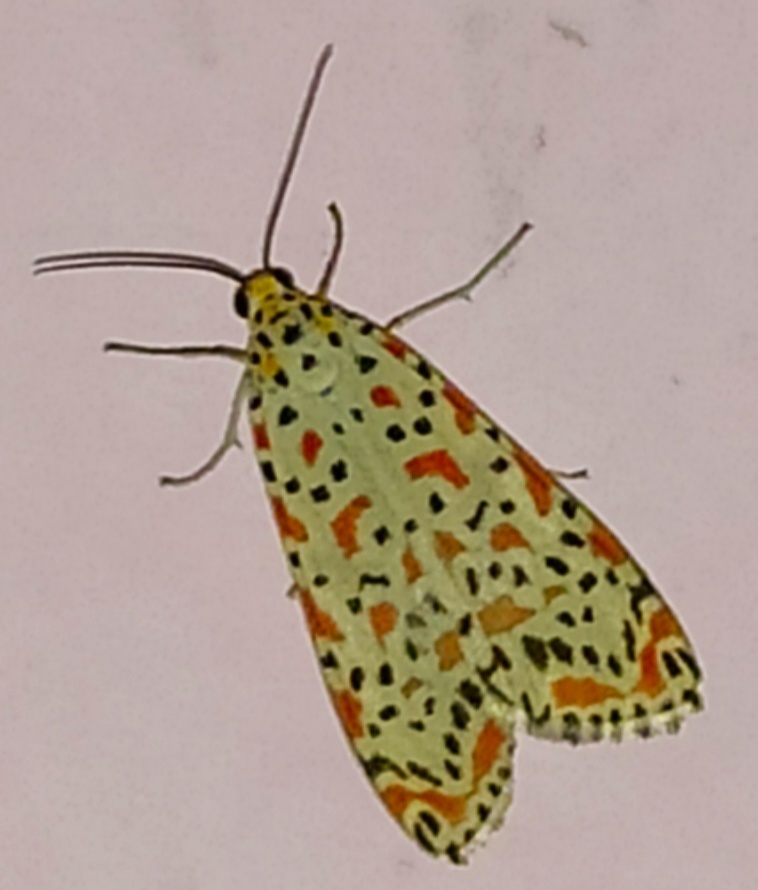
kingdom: Animalia
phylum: Arthropoda
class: Insecta
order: Lepidoptera
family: Erebidae
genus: Utetheisa
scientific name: Utetheisa lotrix
